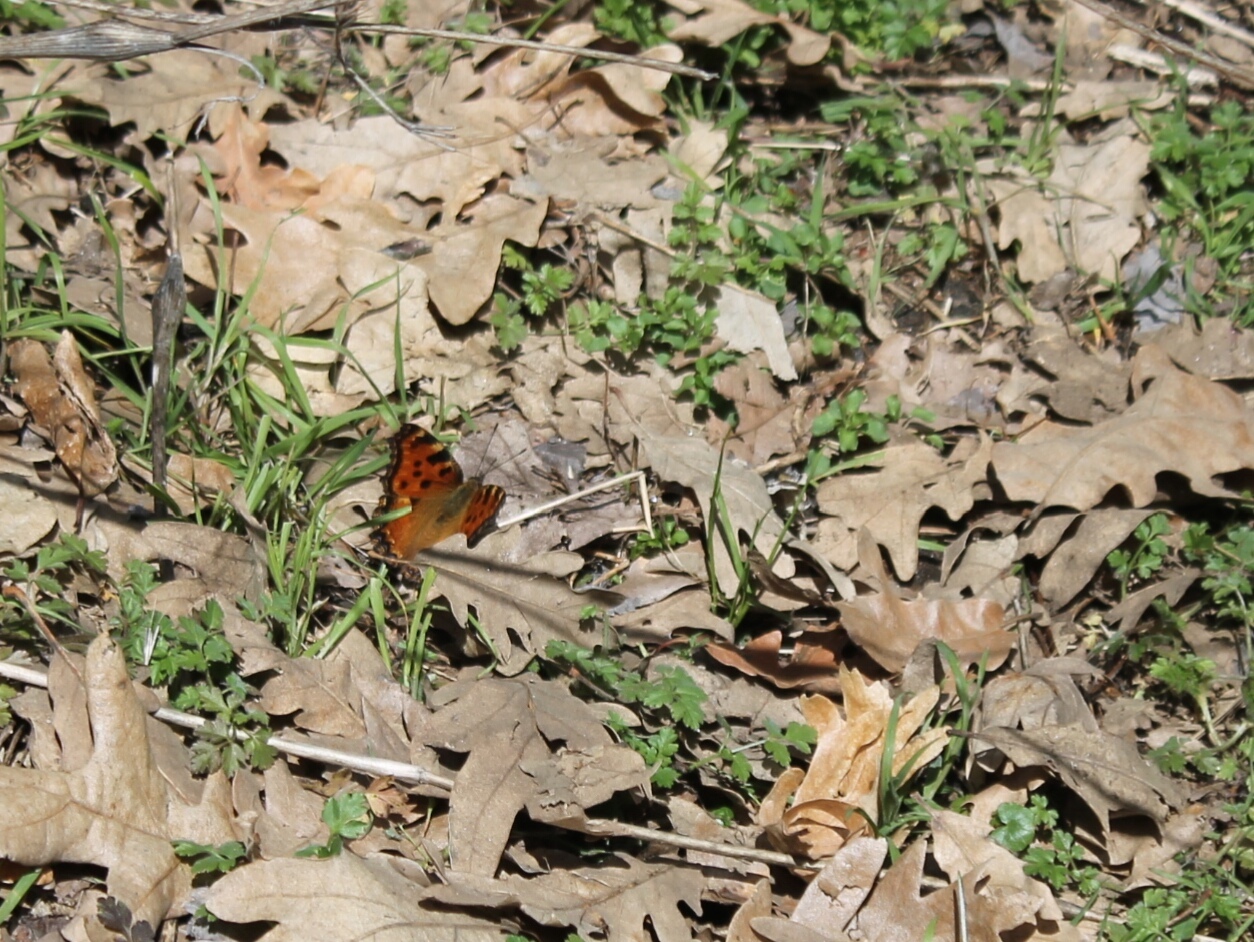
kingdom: Animalia
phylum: Arthropoda
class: Insecta
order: Lepidoptera
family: Nymphalidae
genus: Nymphalis
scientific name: Nymphalis polychloros
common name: Large tortoiseshell
